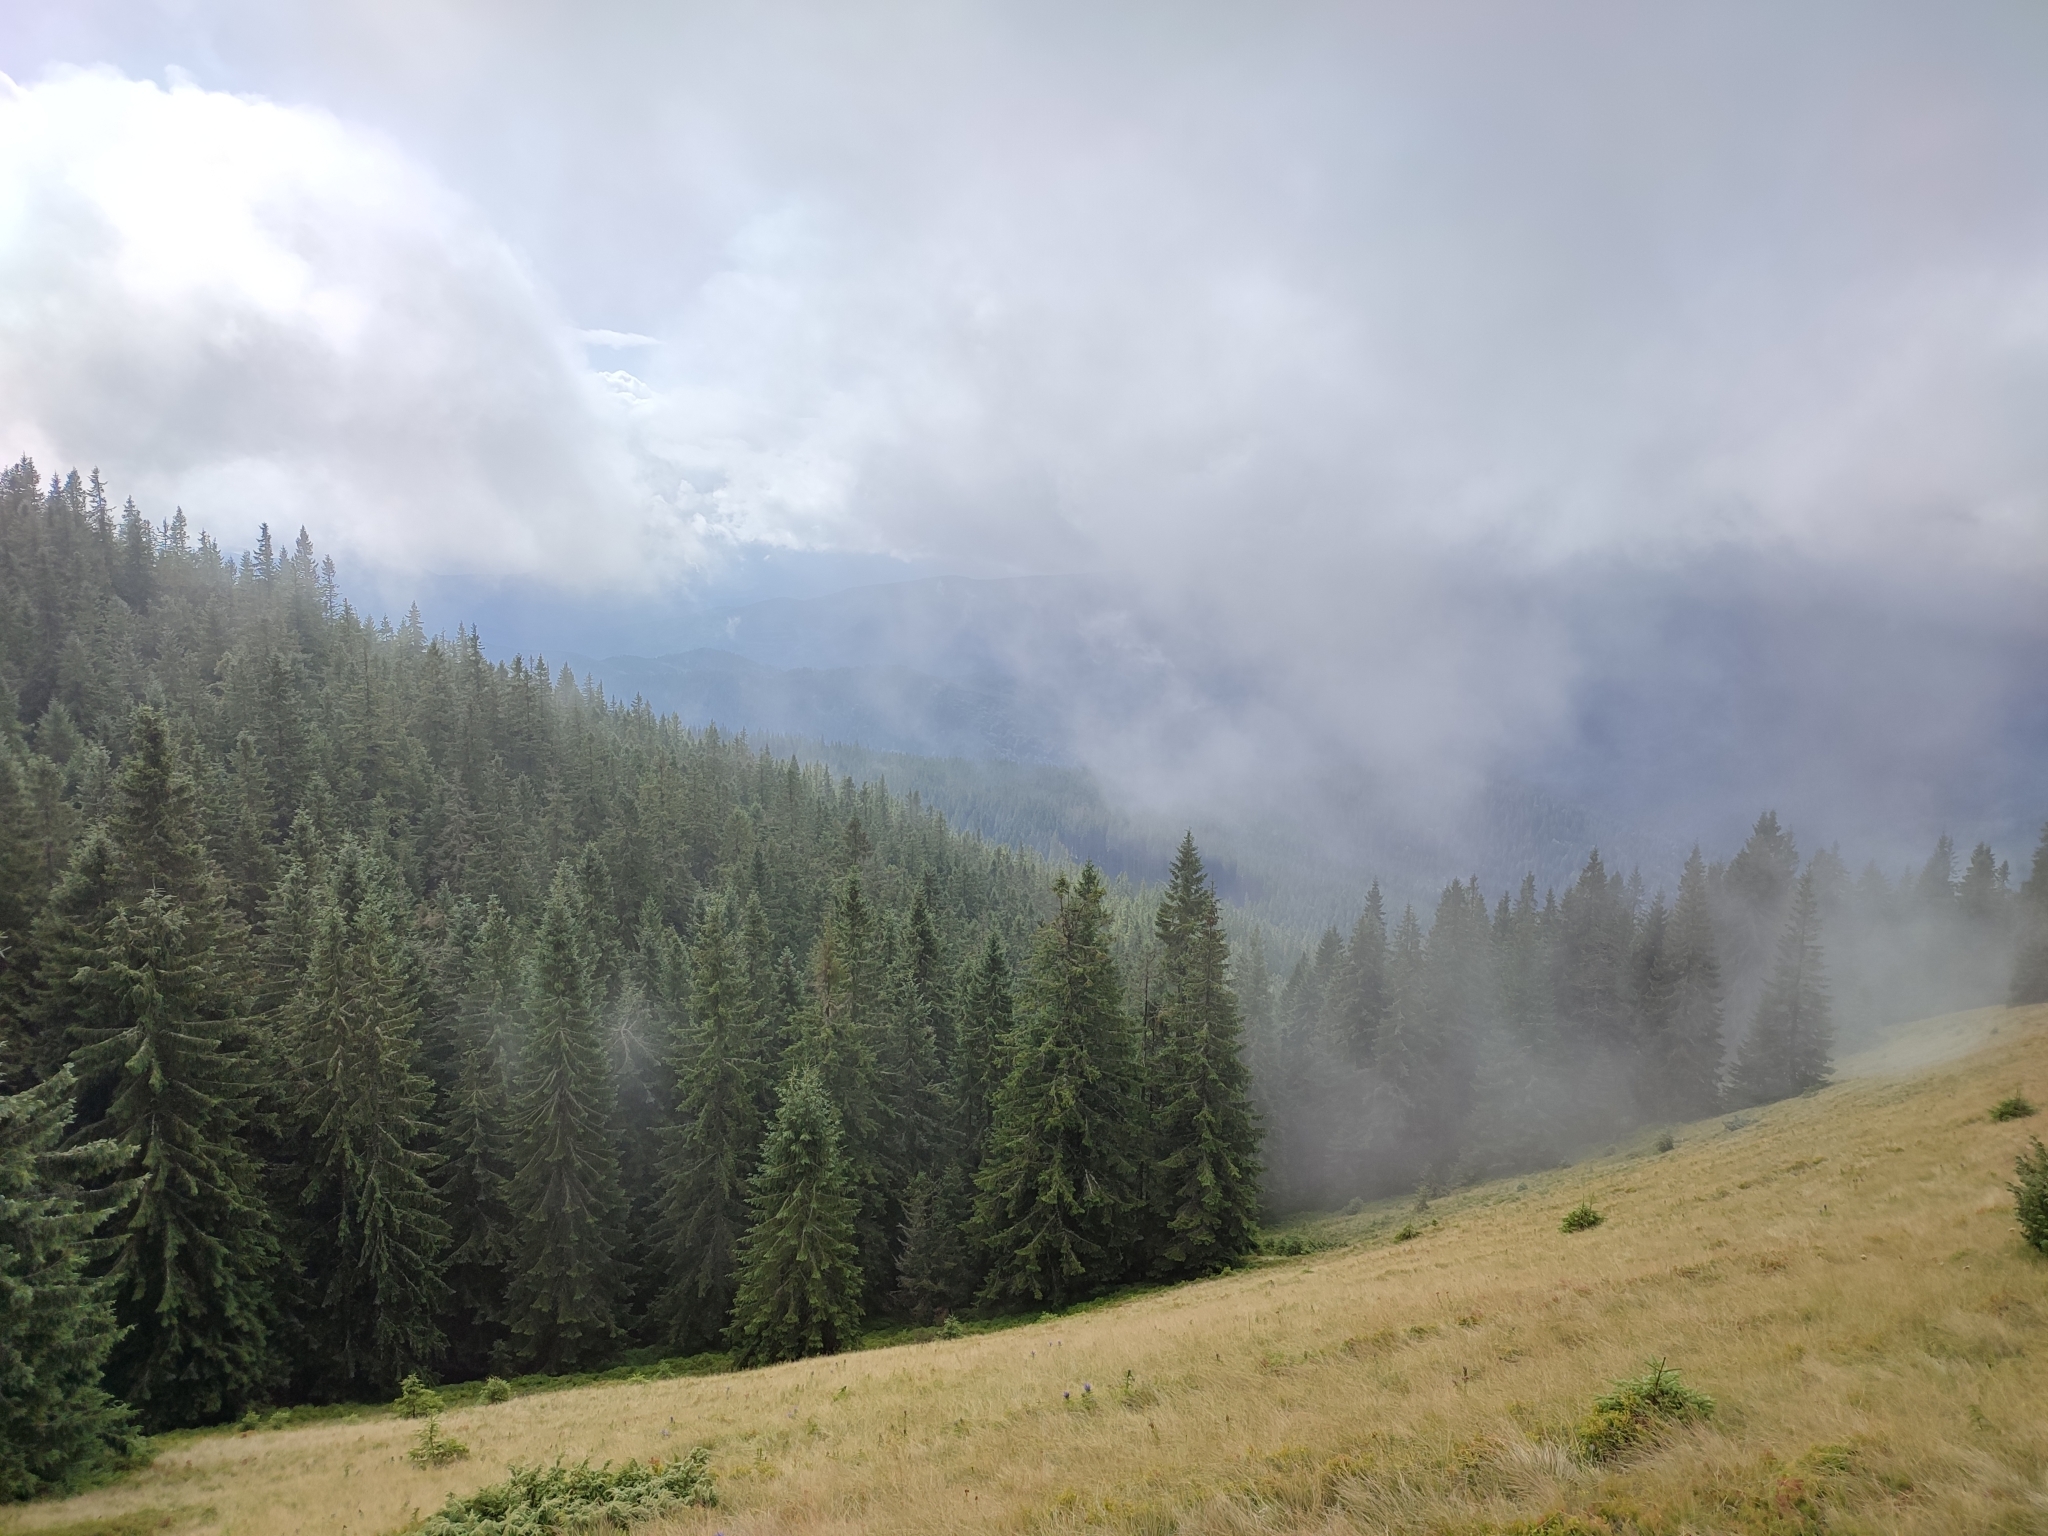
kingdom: Plantae
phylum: Tracheophyta
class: Pinopsida
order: Pinales
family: Pinaceae
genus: Picea
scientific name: Picea abies
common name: Norway spruce
